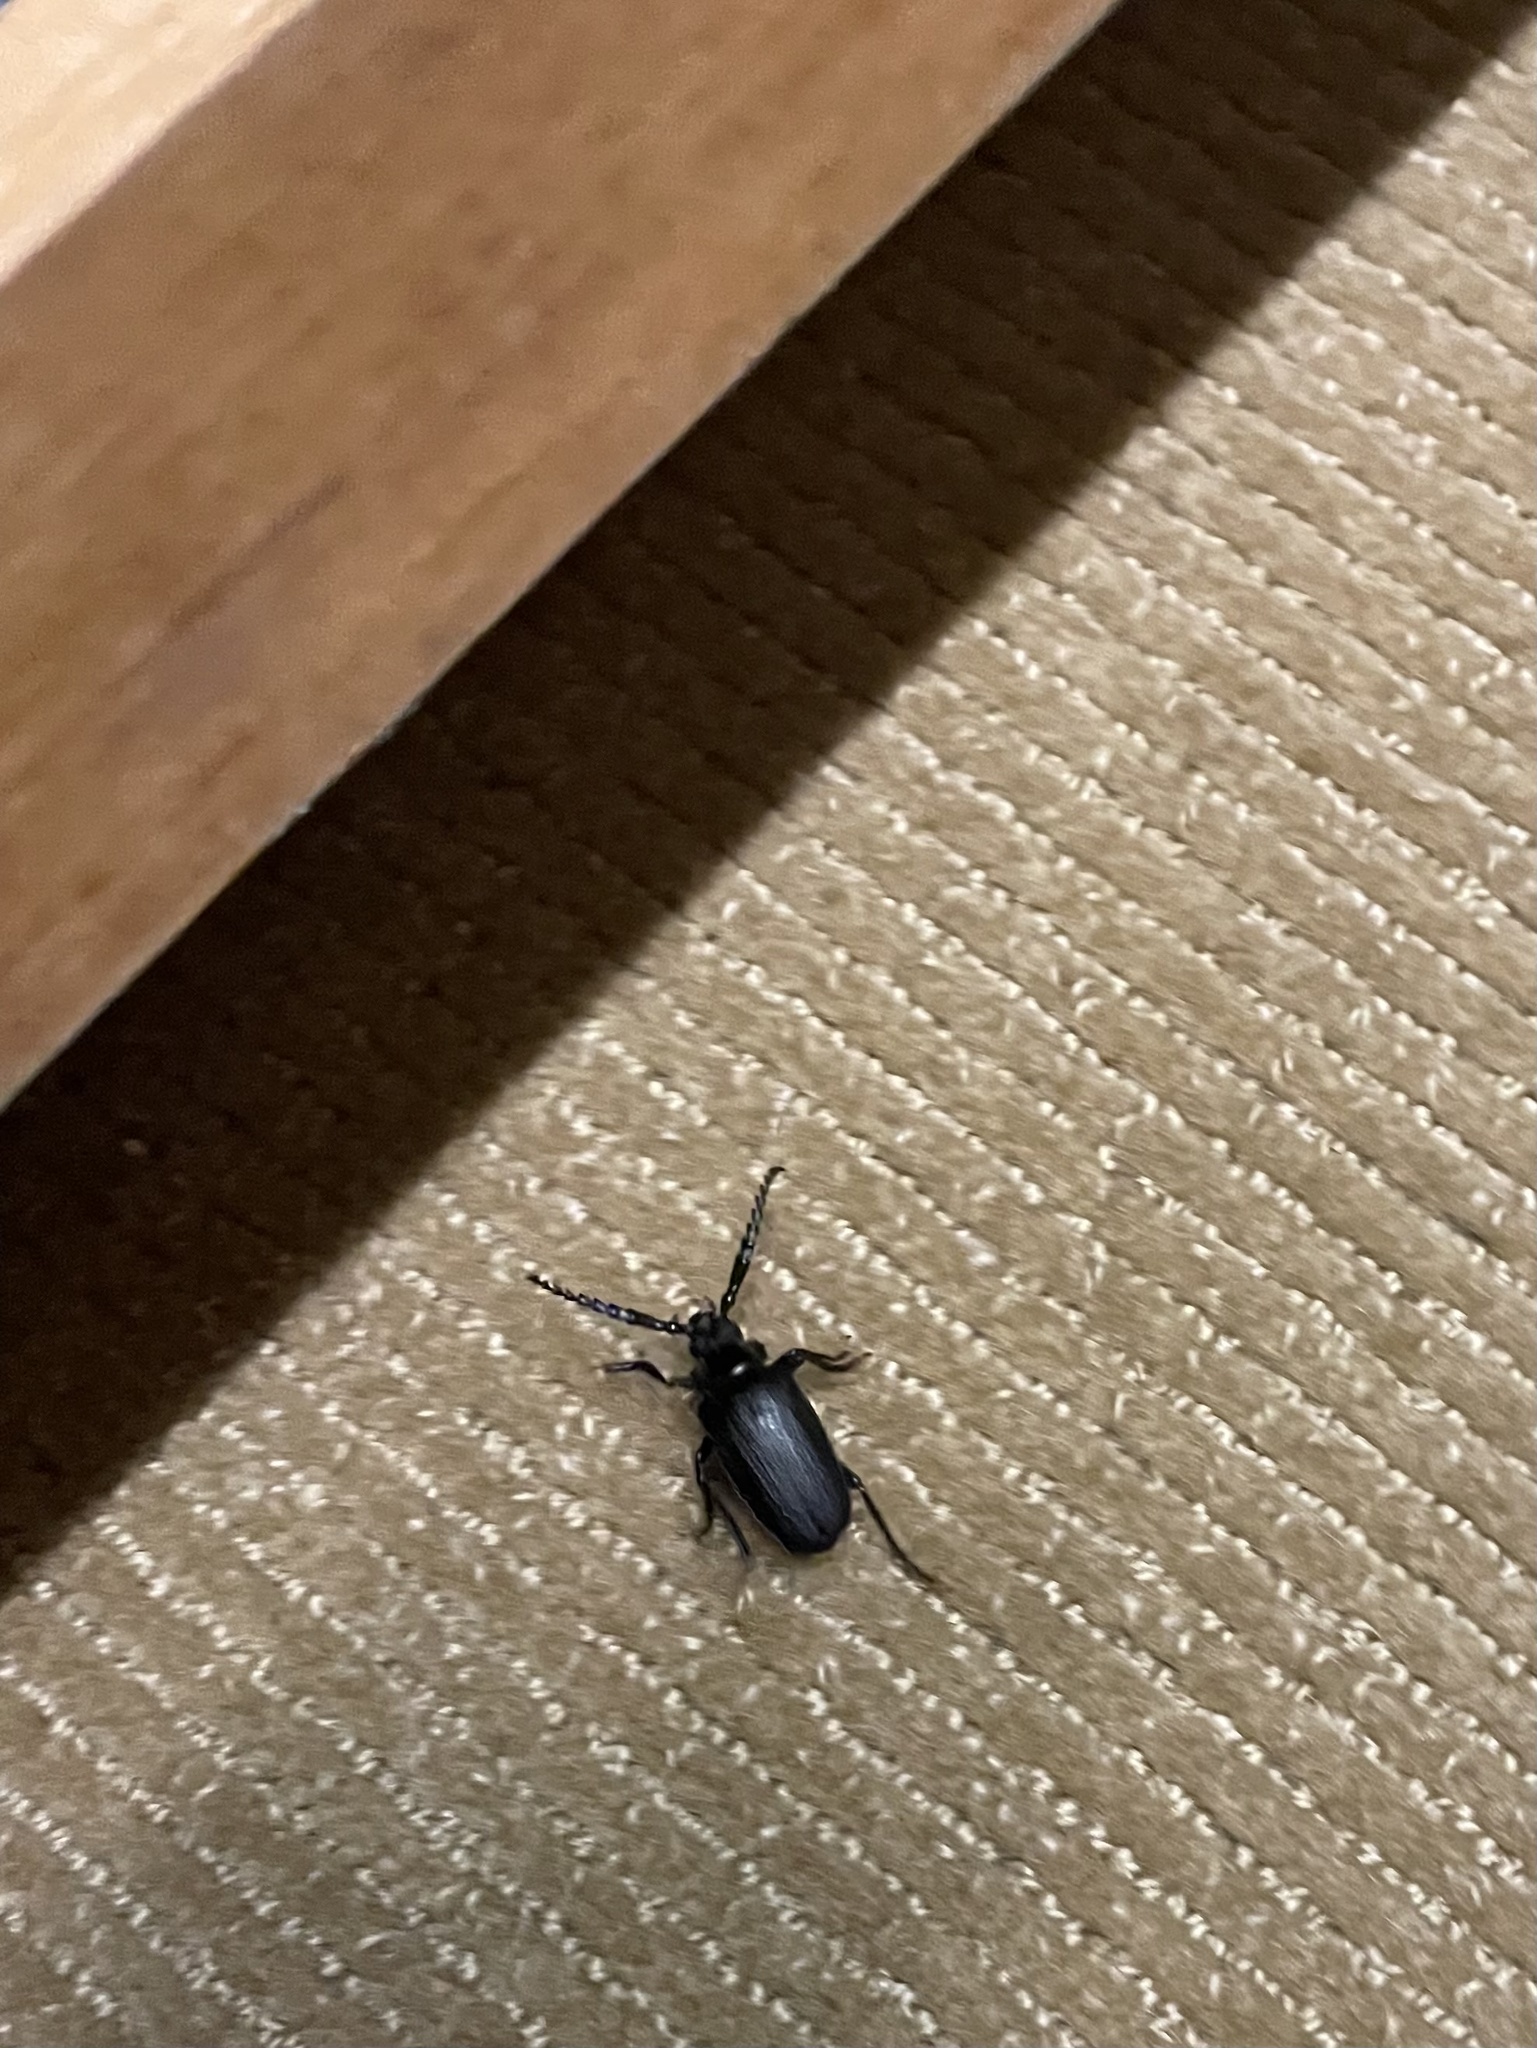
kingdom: Animalia
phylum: Arthropoda
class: Insecta
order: Coleoptera
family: Cerambycidae
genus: Prionus
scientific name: Prionus laticollis
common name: Broad necked prionus
